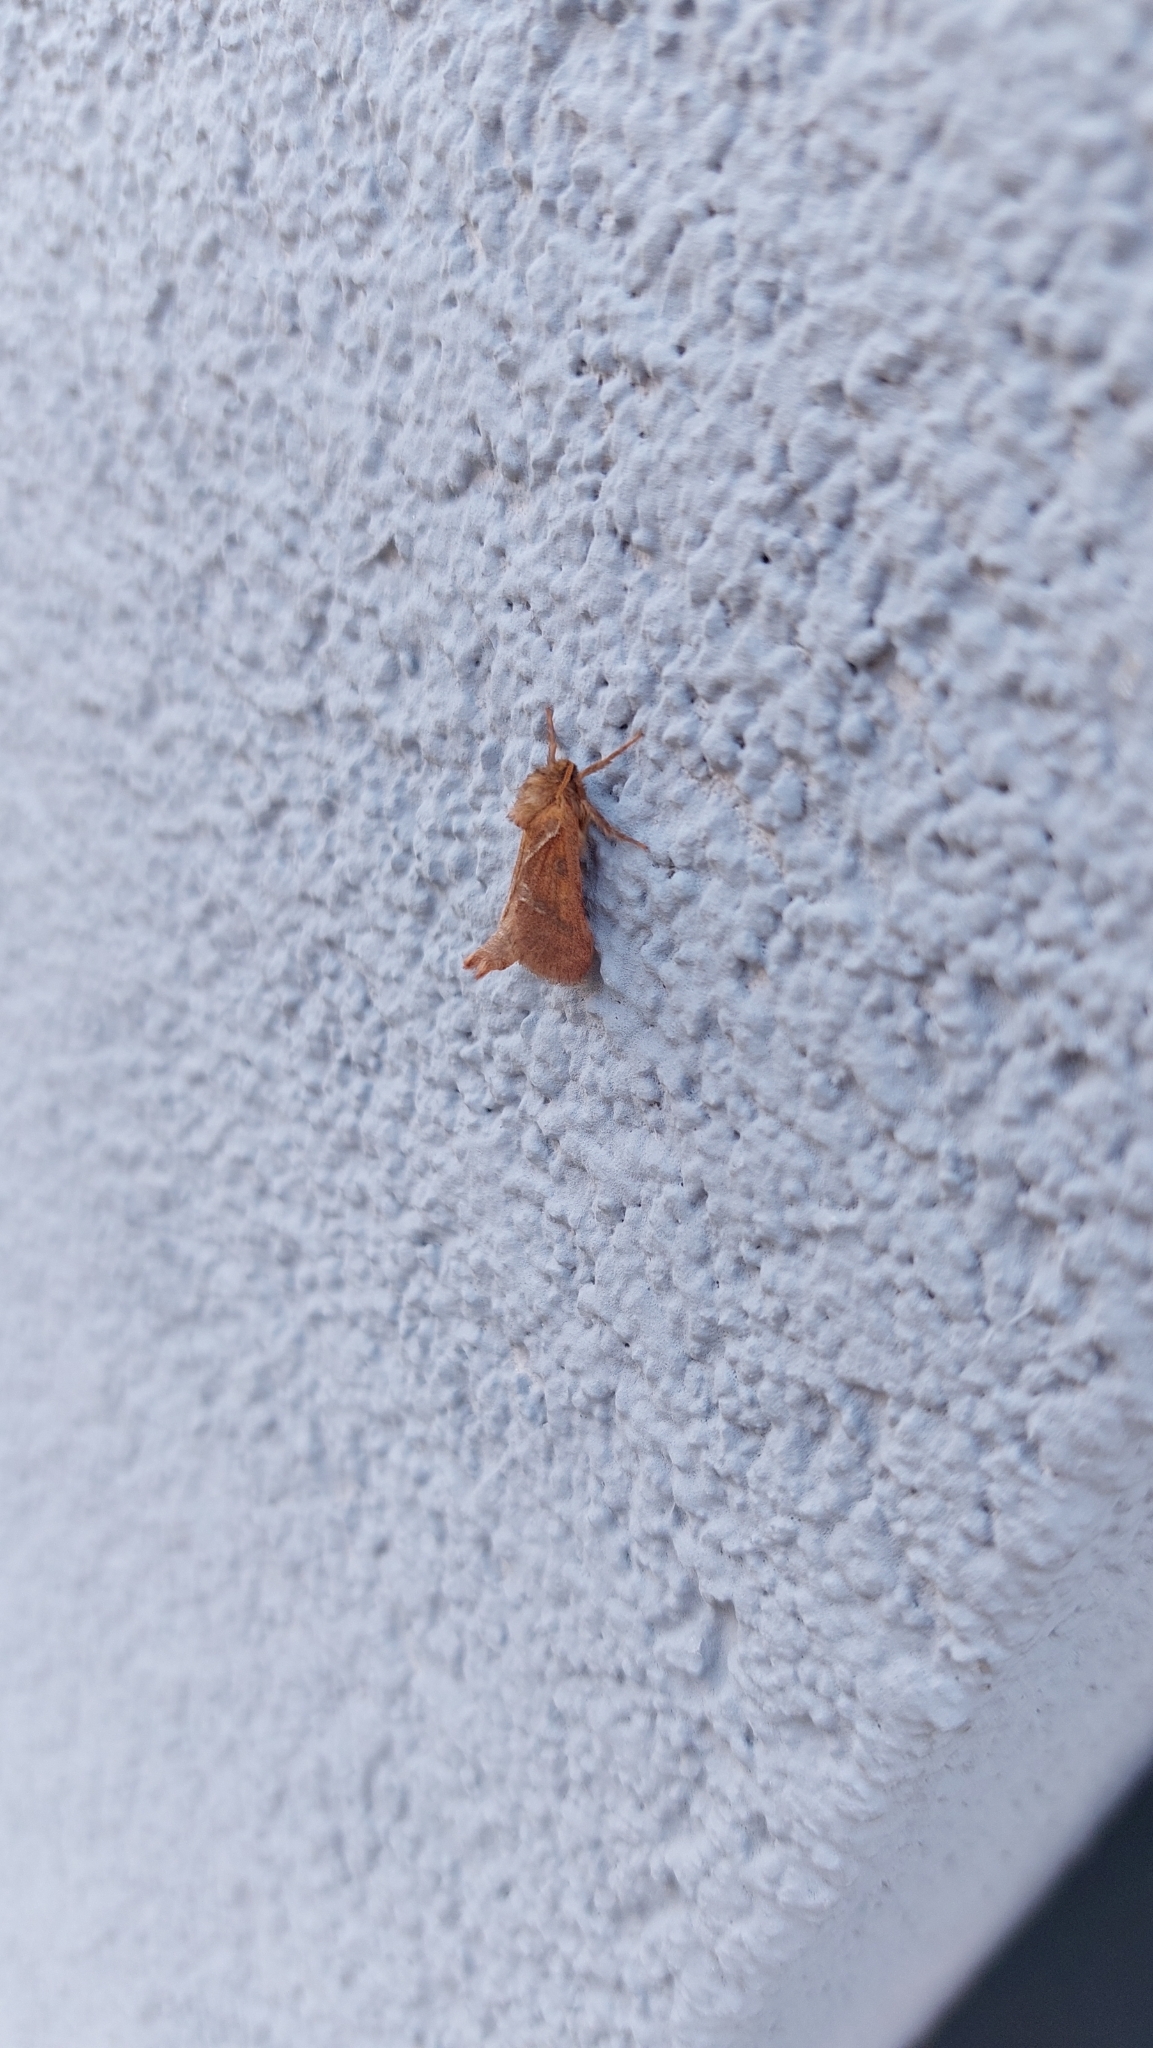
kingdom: Animalia
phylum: Arthropoda
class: Insecta
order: Lepidoptera
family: Hepialidae
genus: Triodia
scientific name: Triodia sylvina
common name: Orange swift
